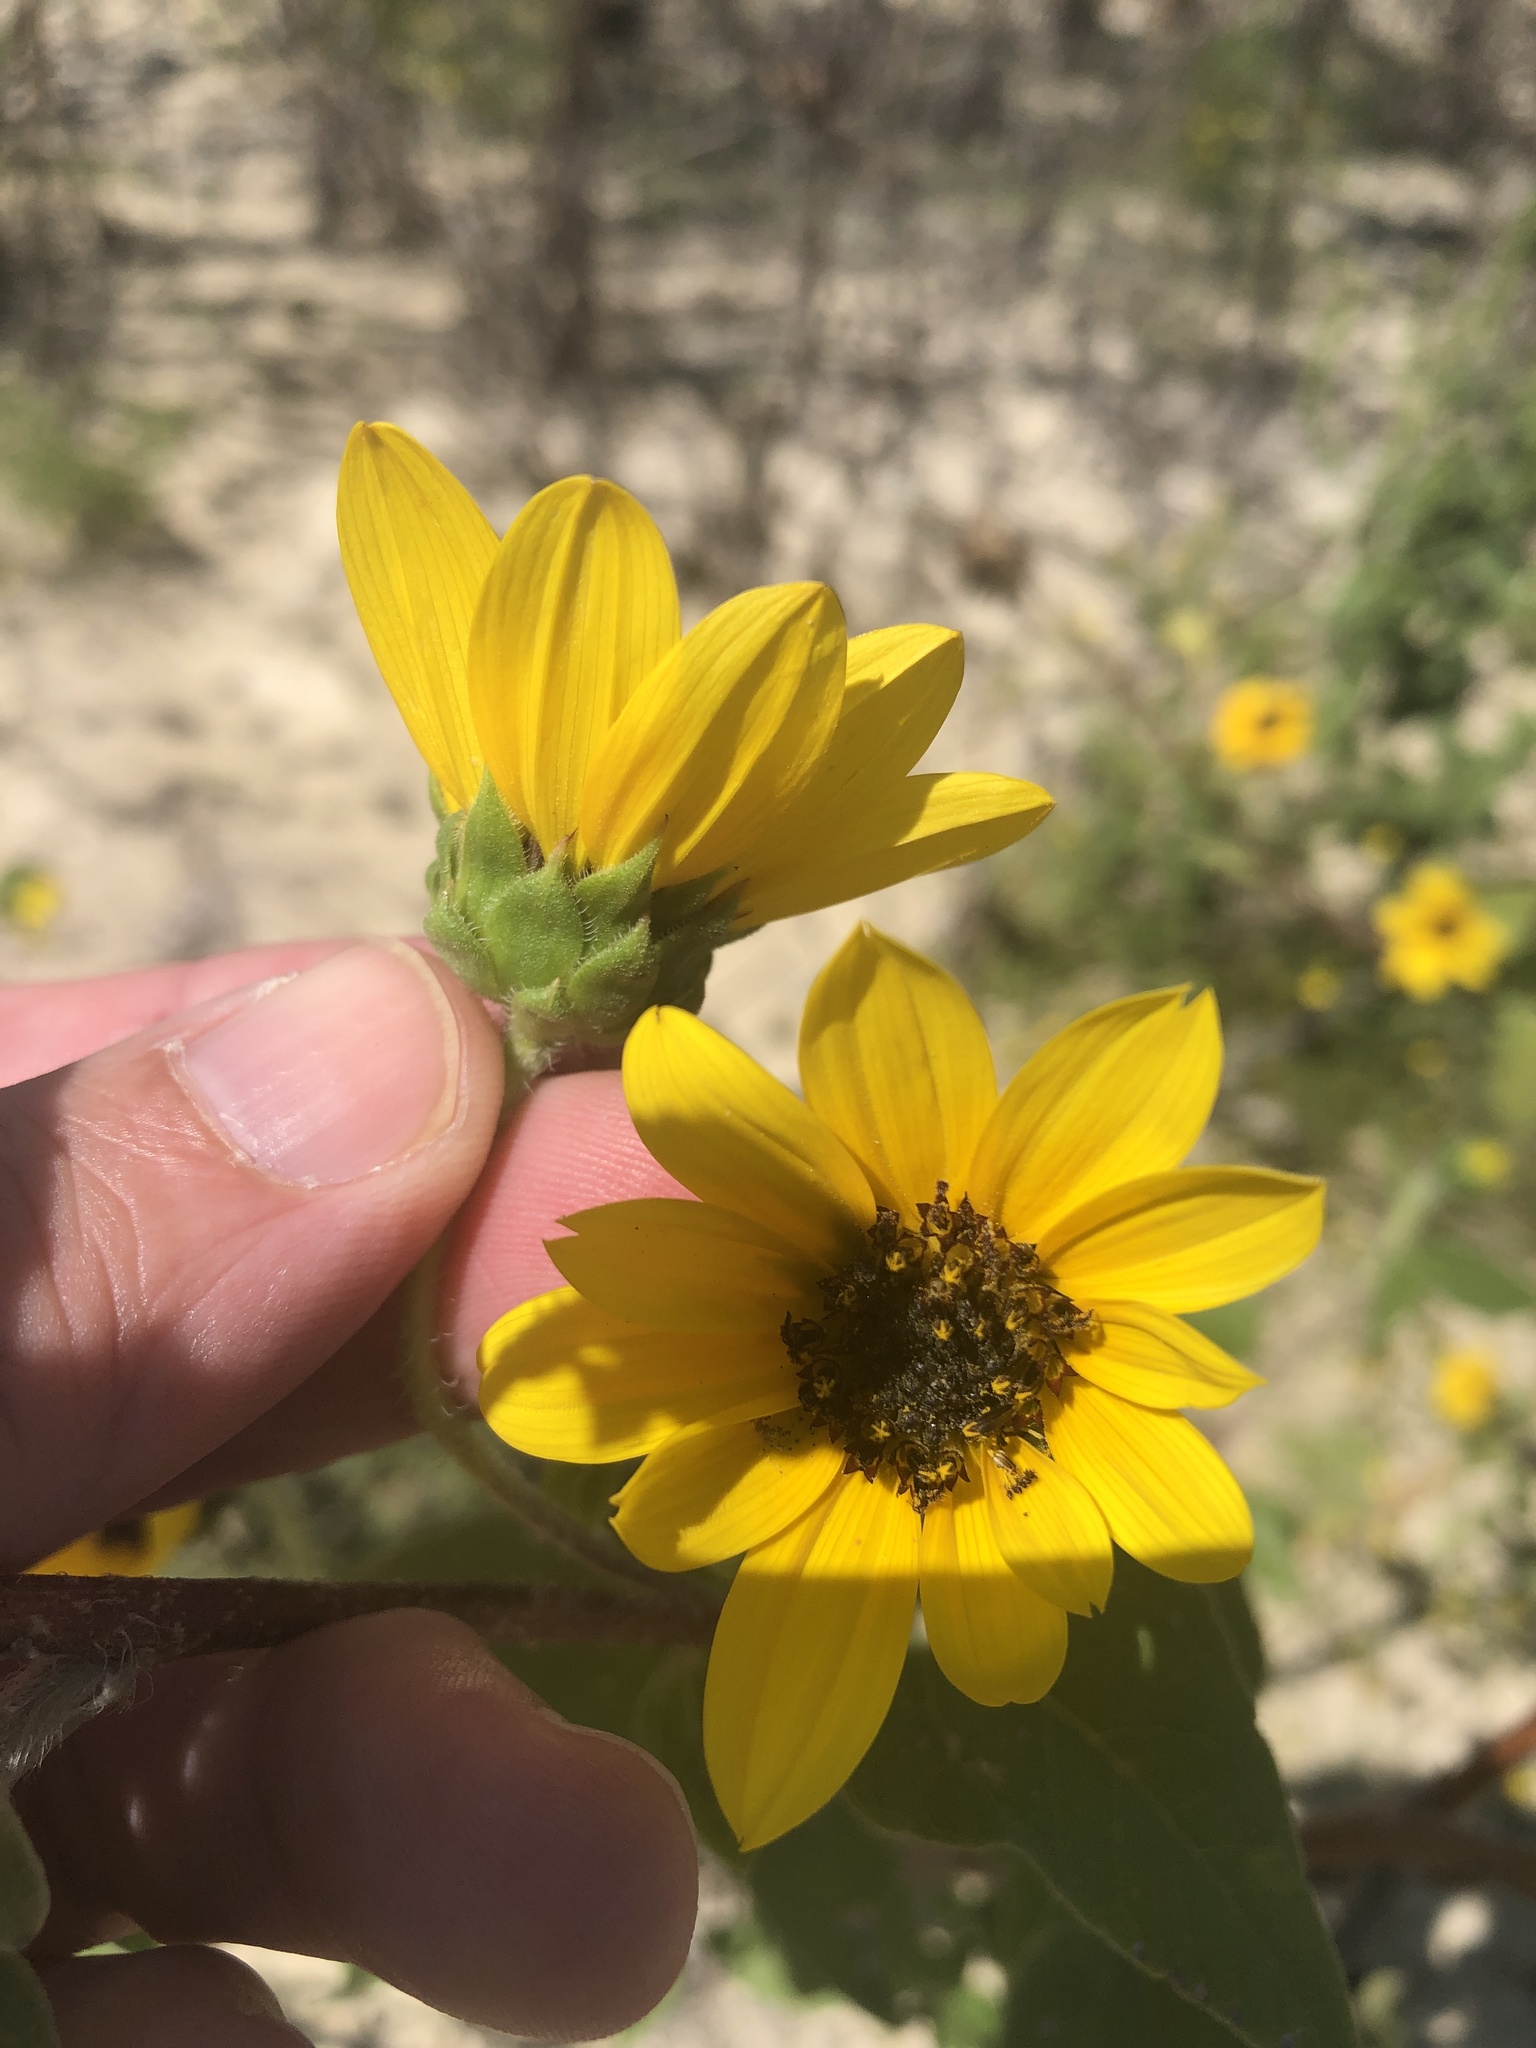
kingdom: Plantae
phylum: Tracheophyta
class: Magnoliopsida
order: Asterales
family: Asteraceae
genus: Helianthus
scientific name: Helianthus annuus
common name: Sunflower
